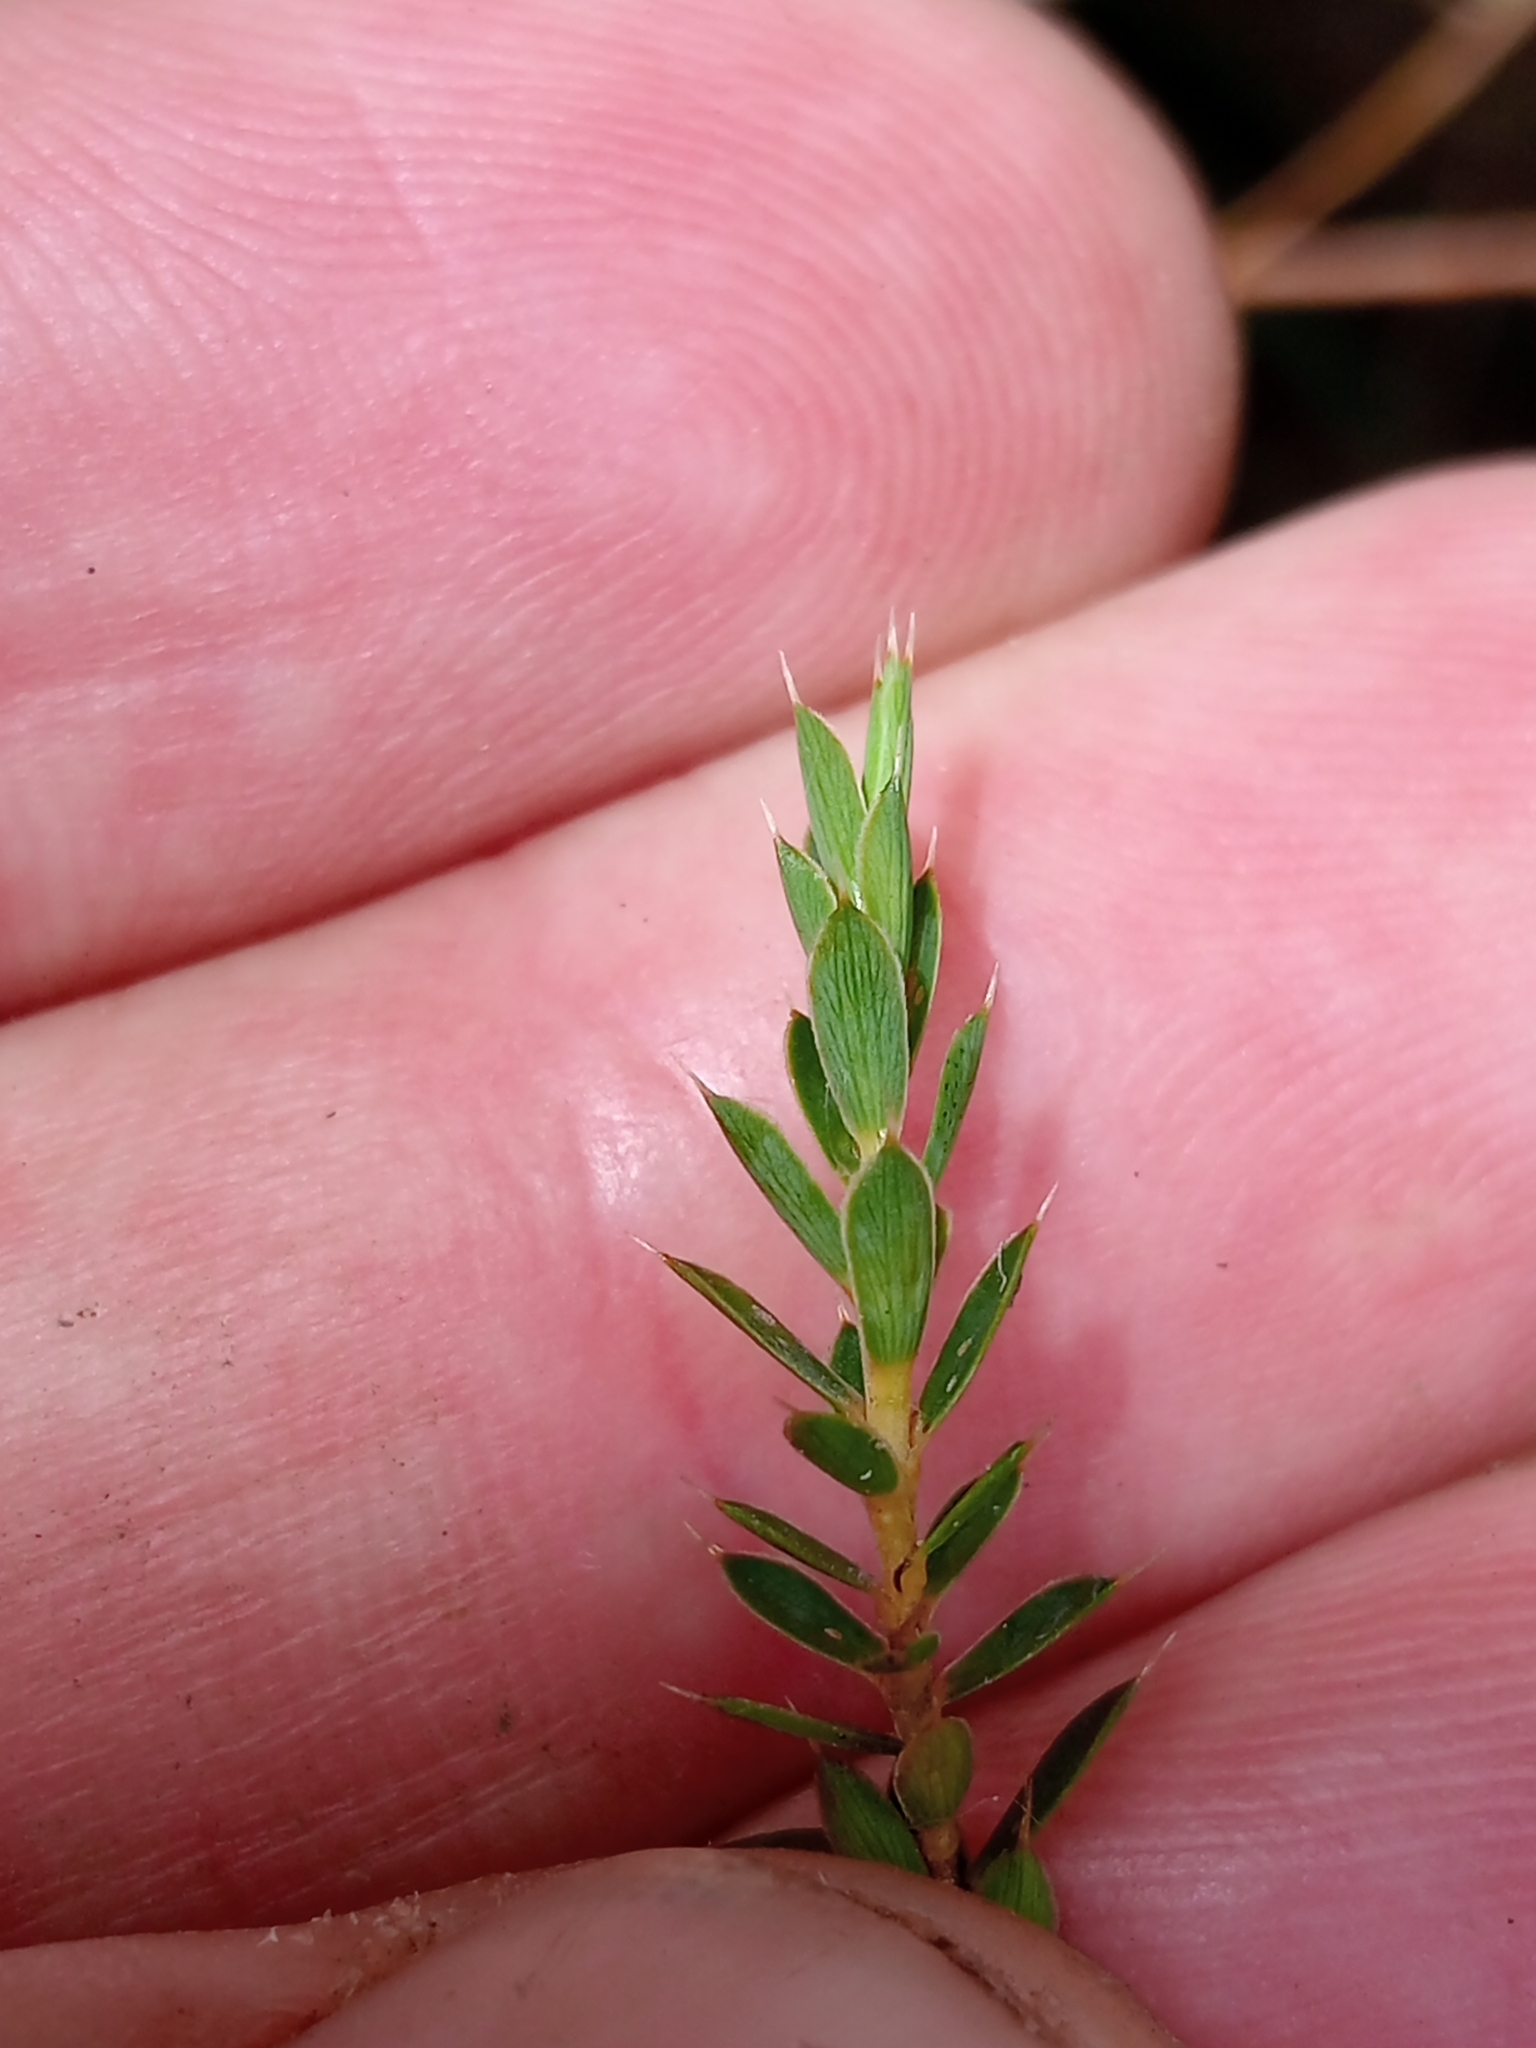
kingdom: Plantae
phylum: Tracheophyta
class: Magnoliopsida
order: Ericales
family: Ericaceae
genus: Styphelia
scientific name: Styphelia nesophila
